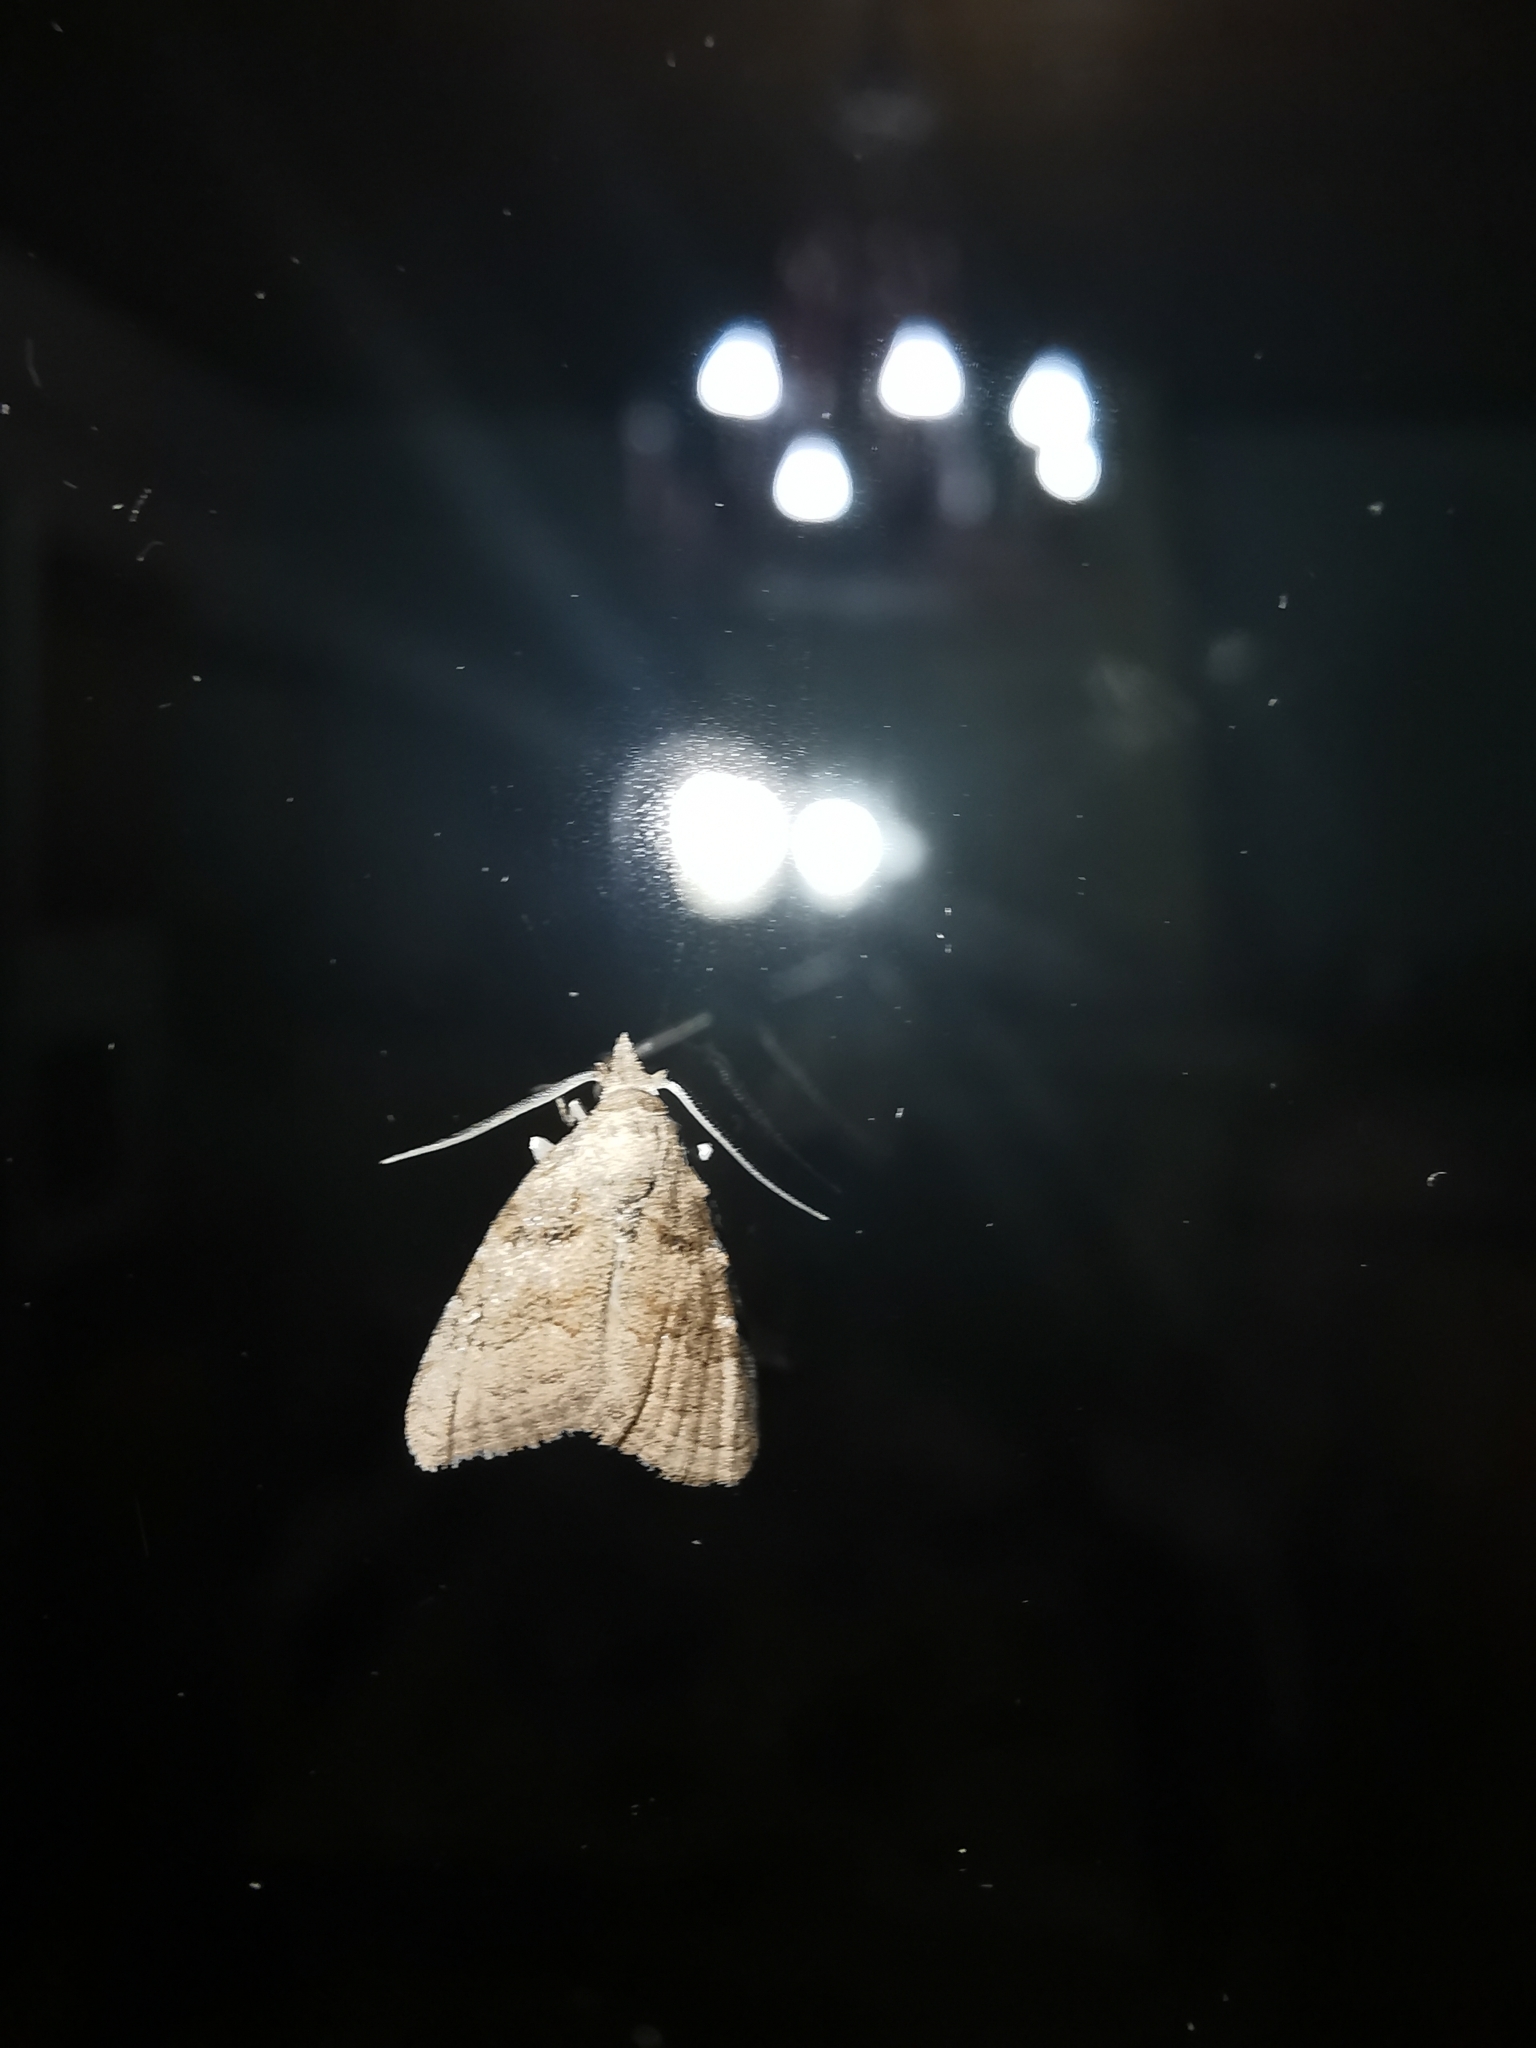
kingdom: Animalia
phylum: Arthropoda
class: Insecta
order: Lepidoptera
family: Nolidae
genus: Nola
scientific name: Nola harouni
